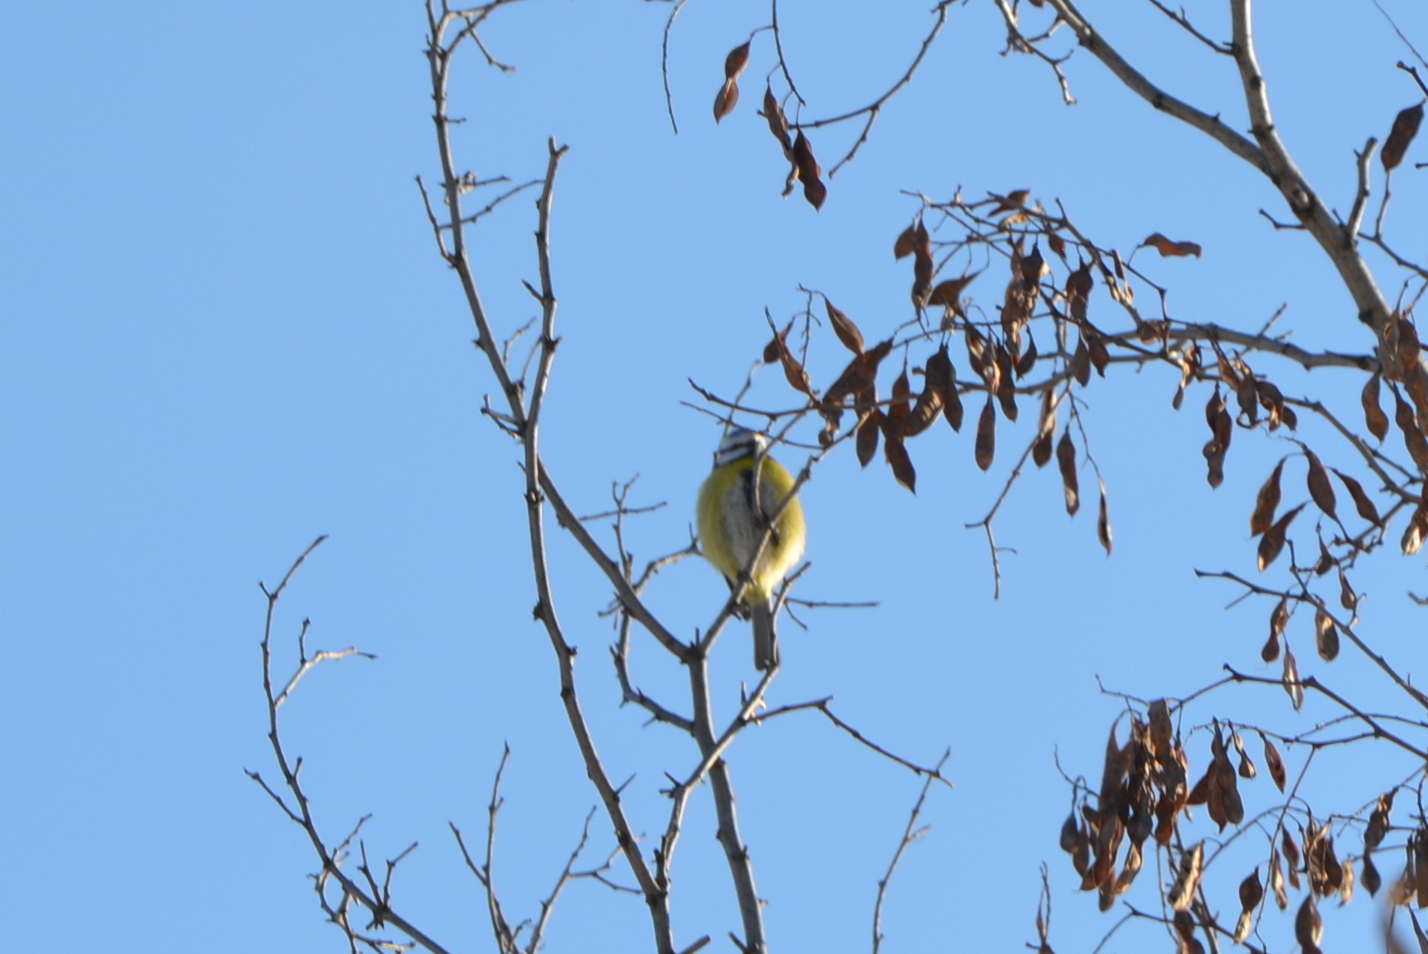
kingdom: Animalia
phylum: Chordata
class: Aves
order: Passeriformes
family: Paridae
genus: Cyanistes
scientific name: Cyanistes caeruleus
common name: Eurasian blue tit
